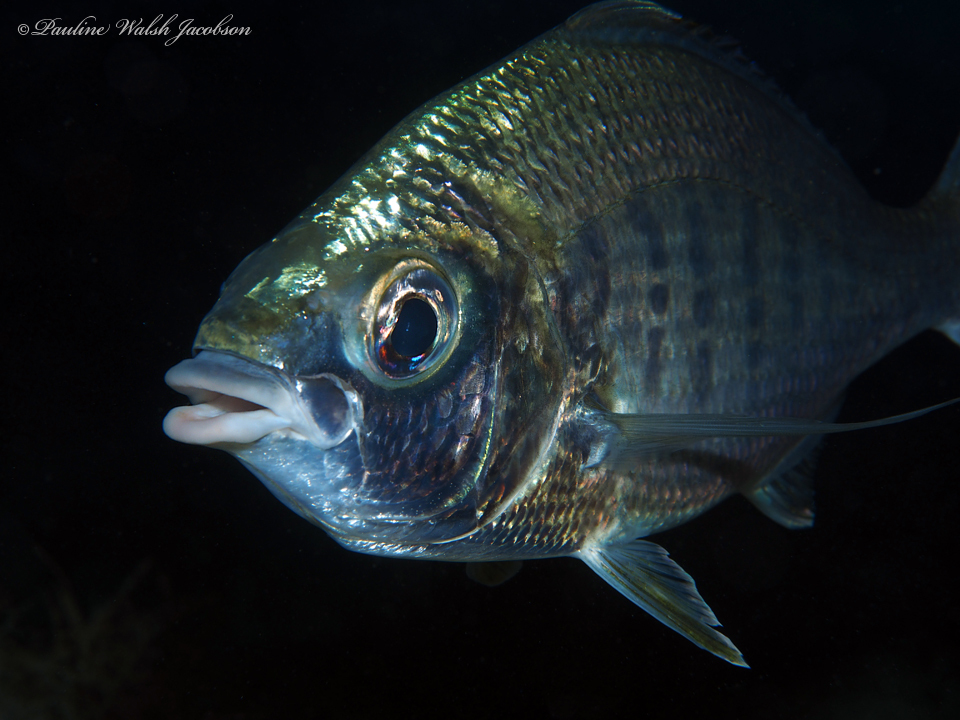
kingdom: Animalia
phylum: Chordata
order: Perciformes
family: Gerreidae
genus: Gerres
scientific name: Gerres cinereus
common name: Hedow
